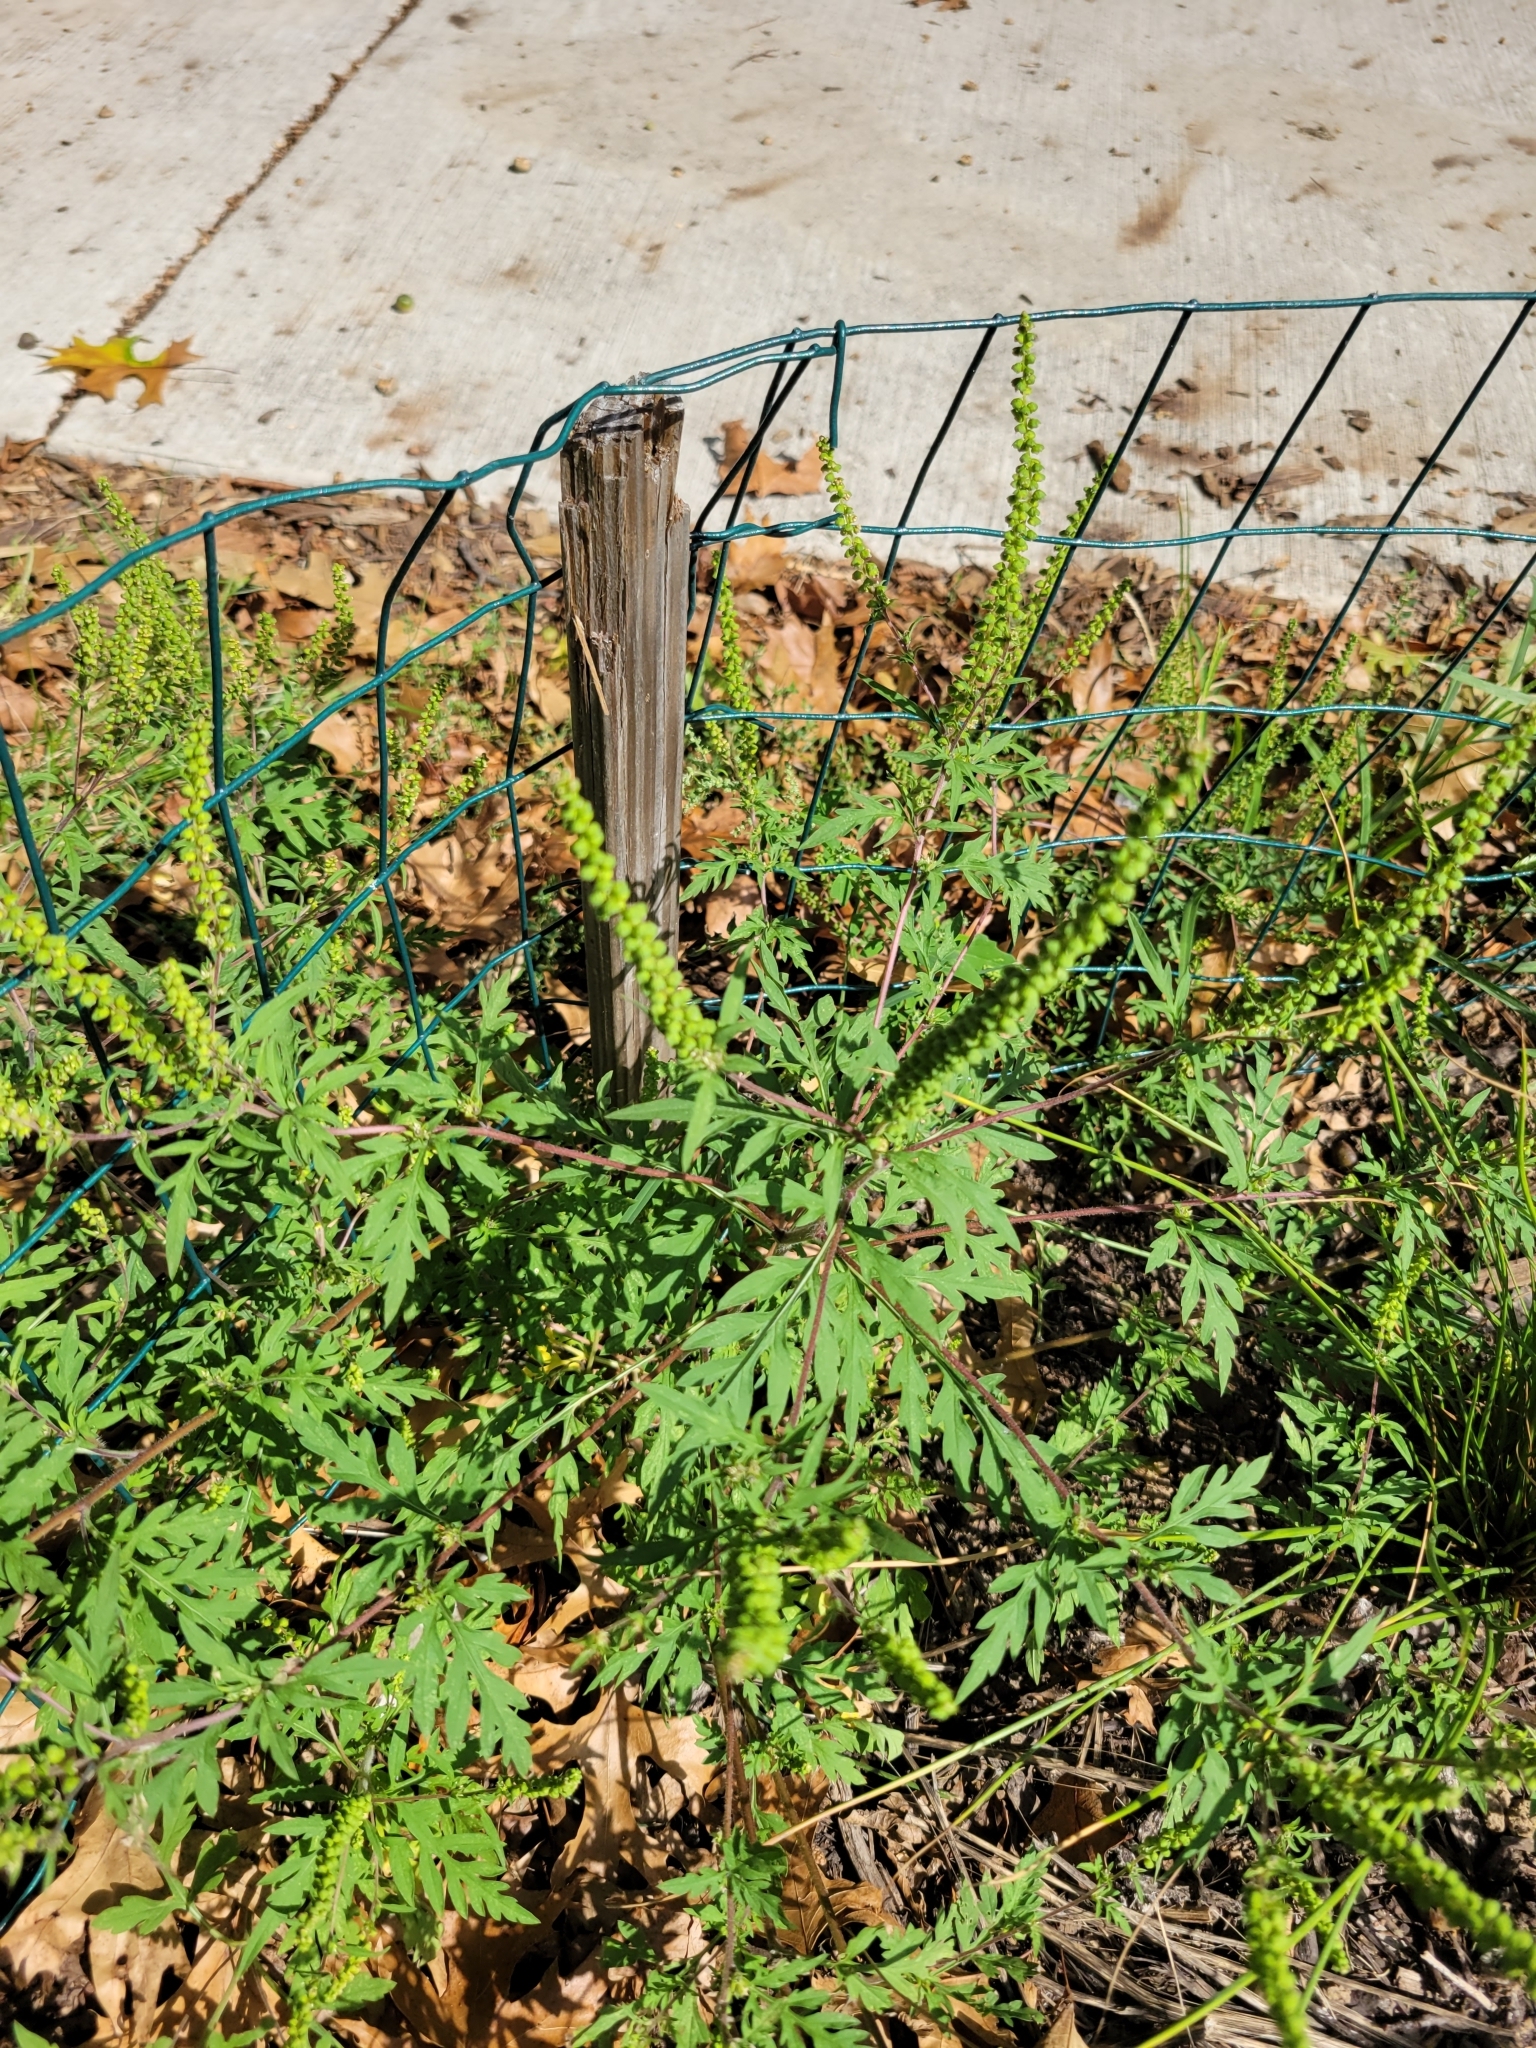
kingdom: Plantae
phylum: Tracheophyta
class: Magnoliopsida
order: Asterales
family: Asteraceae
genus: Ambrosia
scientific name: Ambrosia artemisiifolia
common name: Annual ragweed
